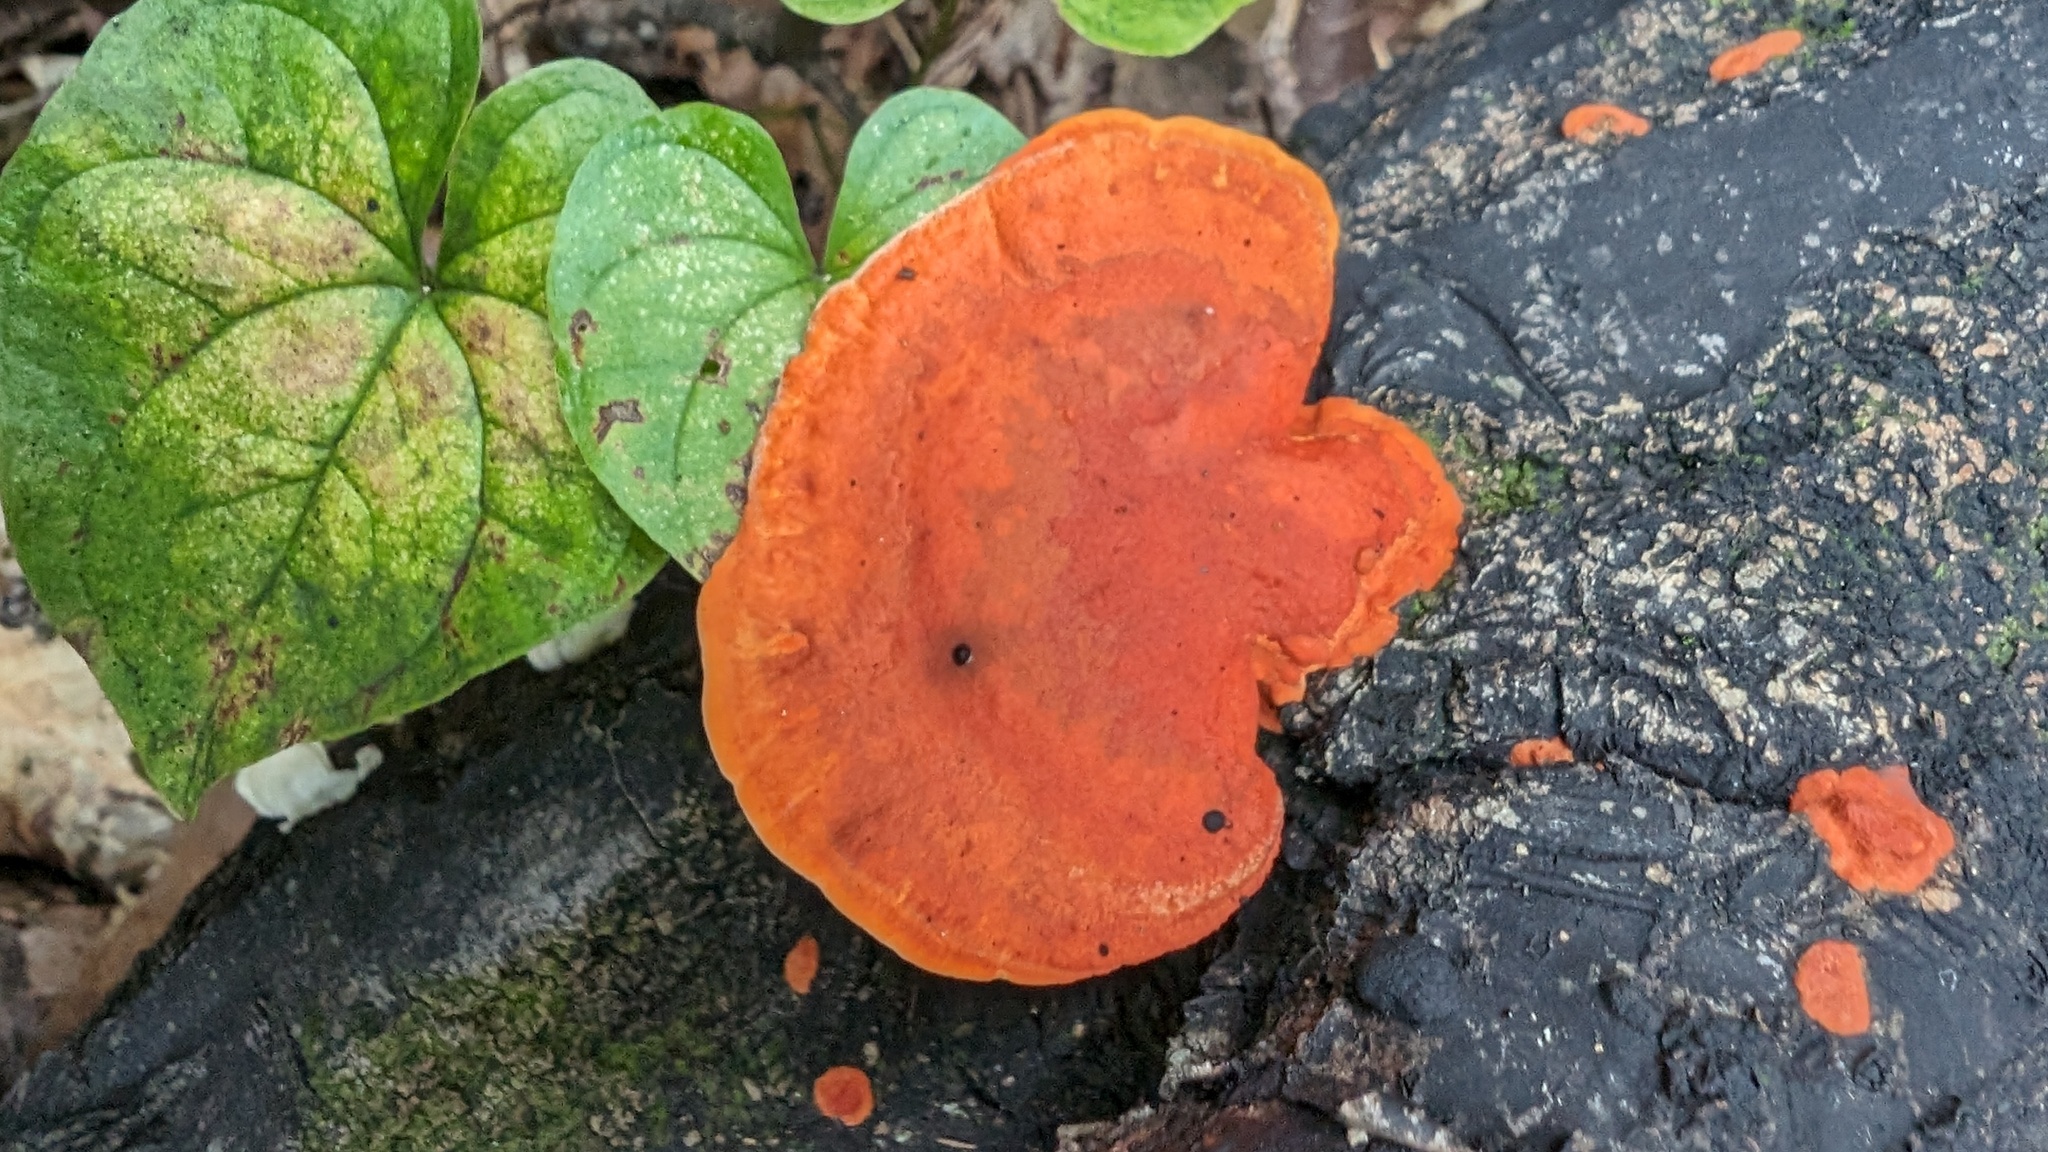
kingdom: Fungi
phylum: Basidiomycota
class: Agaricomycetes
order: Polyporales
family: Polyporaceae
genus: Trametes
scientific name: Trametes coccinea
